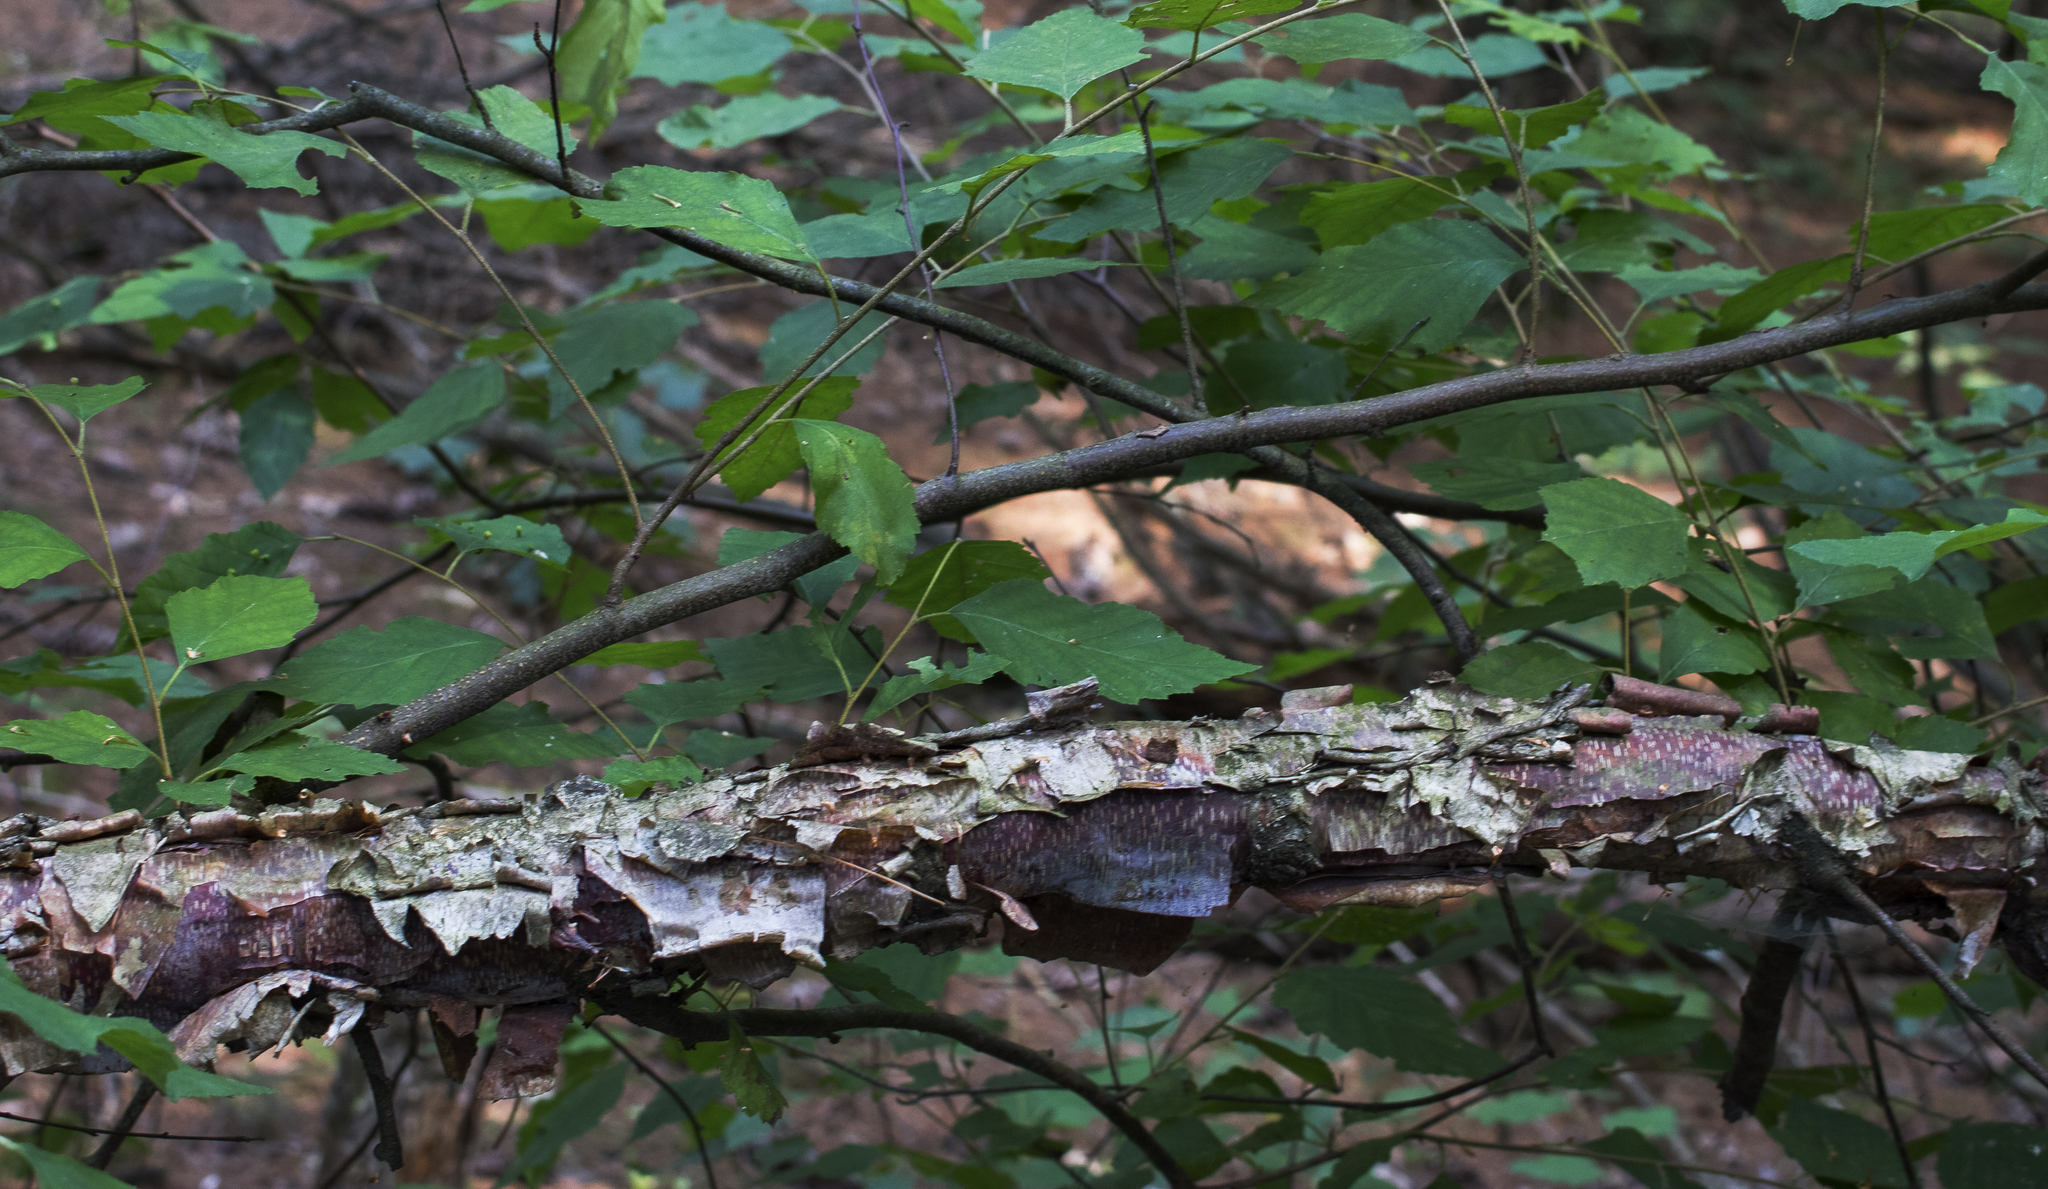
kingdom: Plantae
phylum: Tracheophyta
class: Magnoliopsida
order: Fagales
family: Betulaceae
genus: Betula
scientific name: Betula nigra
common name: Black birch
